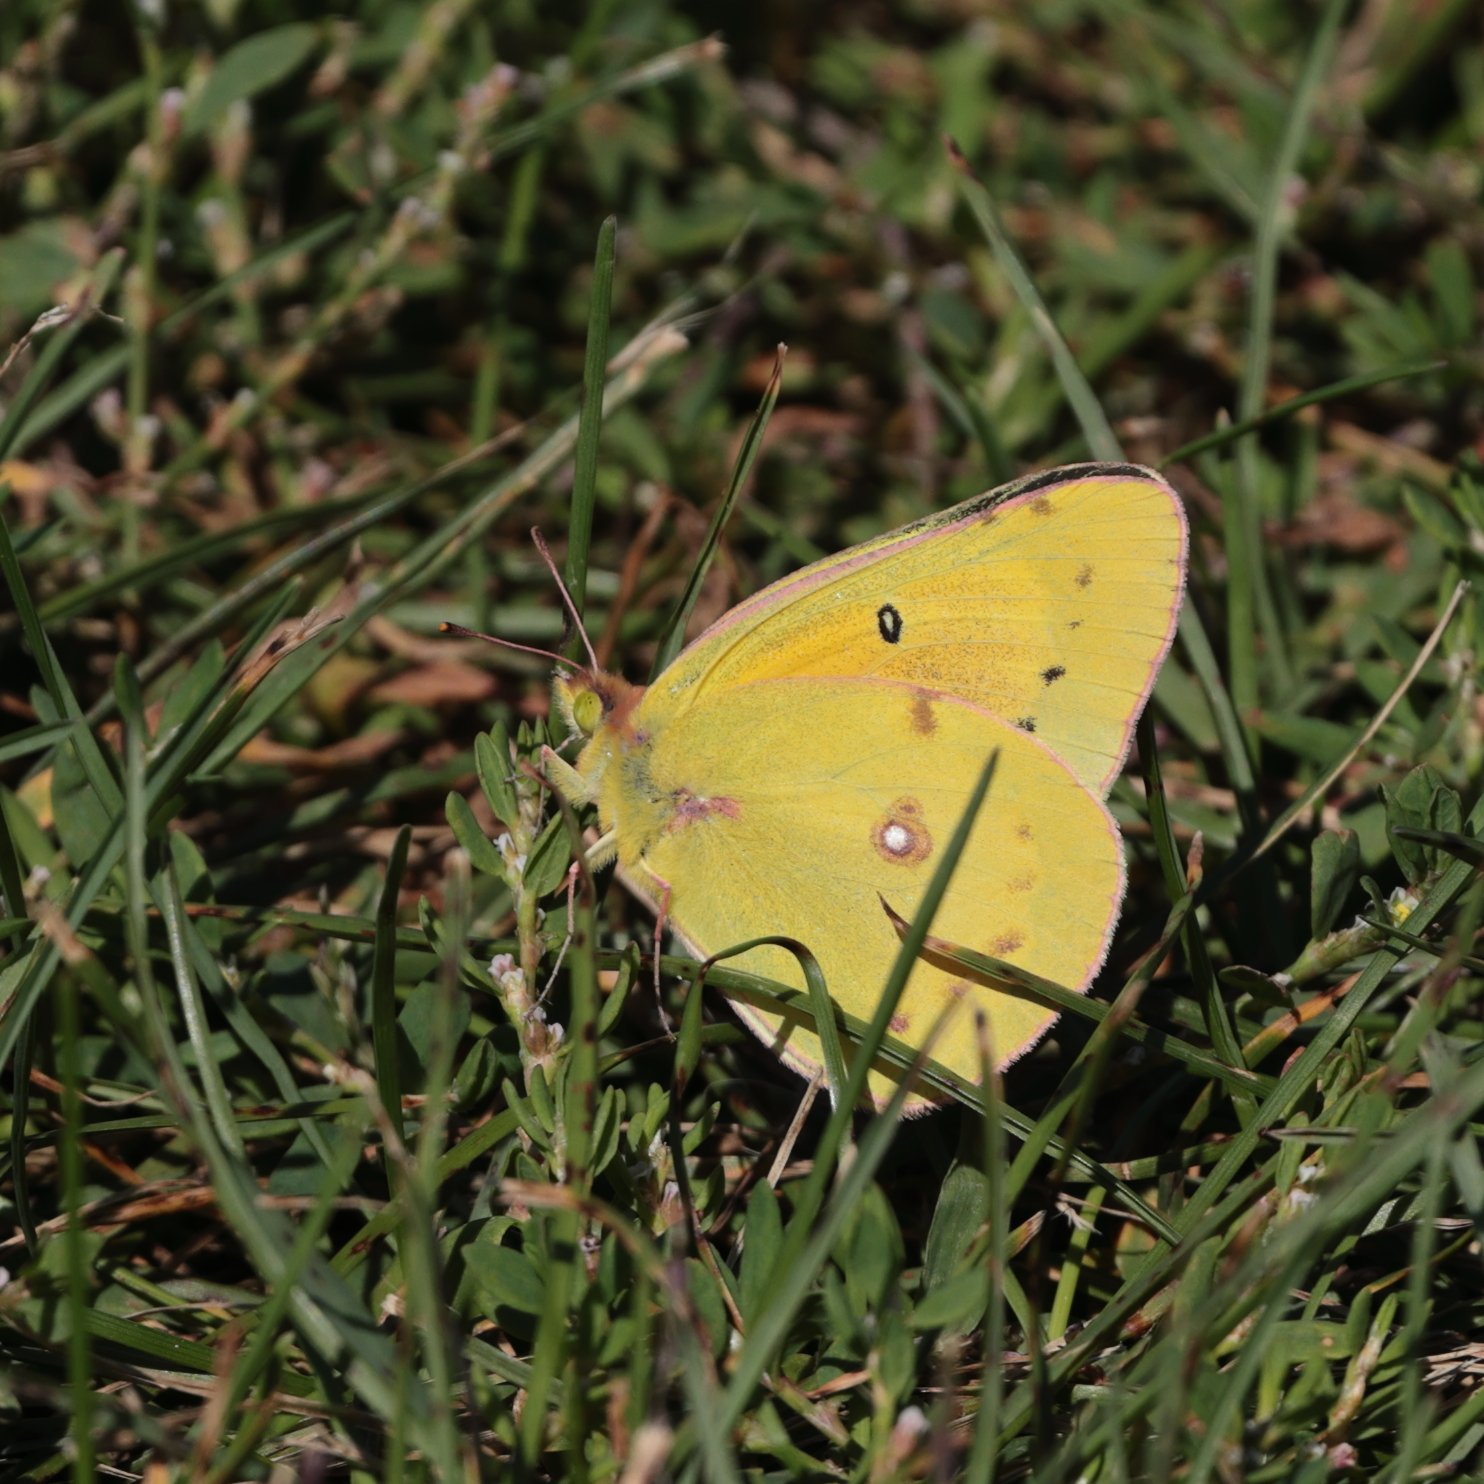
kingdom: Animalia
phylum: Arthropoda
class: Insecta
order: Lepidoptera
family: Pieridae
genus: Colias
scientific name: Colias eurytheme
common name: Alfalfa butterfly
